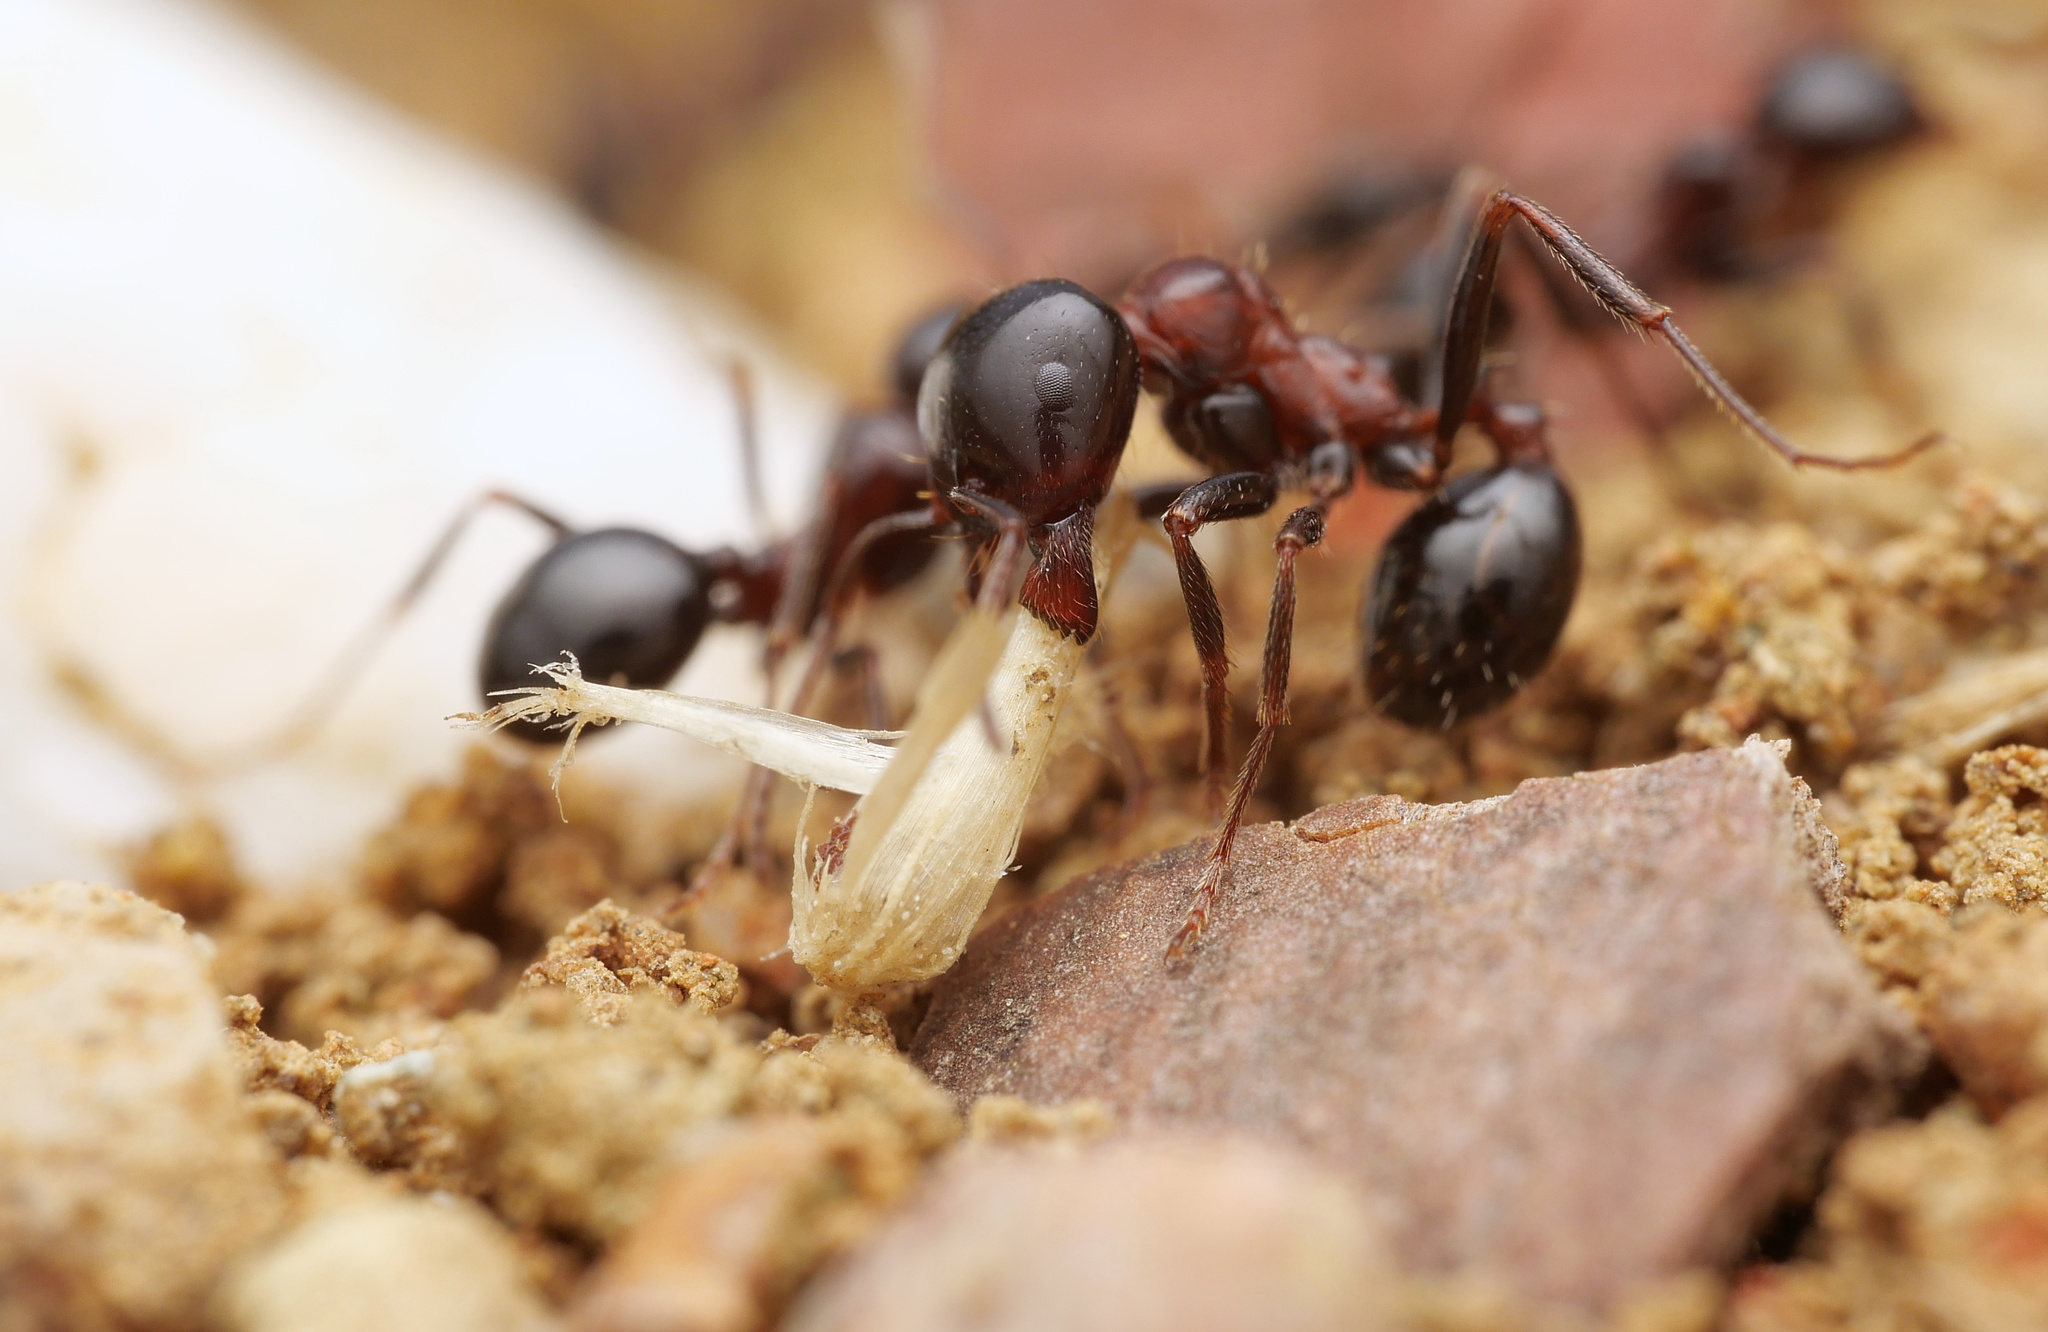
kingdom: Animalia
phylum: Arthropoda
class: Insecta
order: Hymenoptera
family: Formicidae
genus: Messor
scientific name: Messor wasmanni
